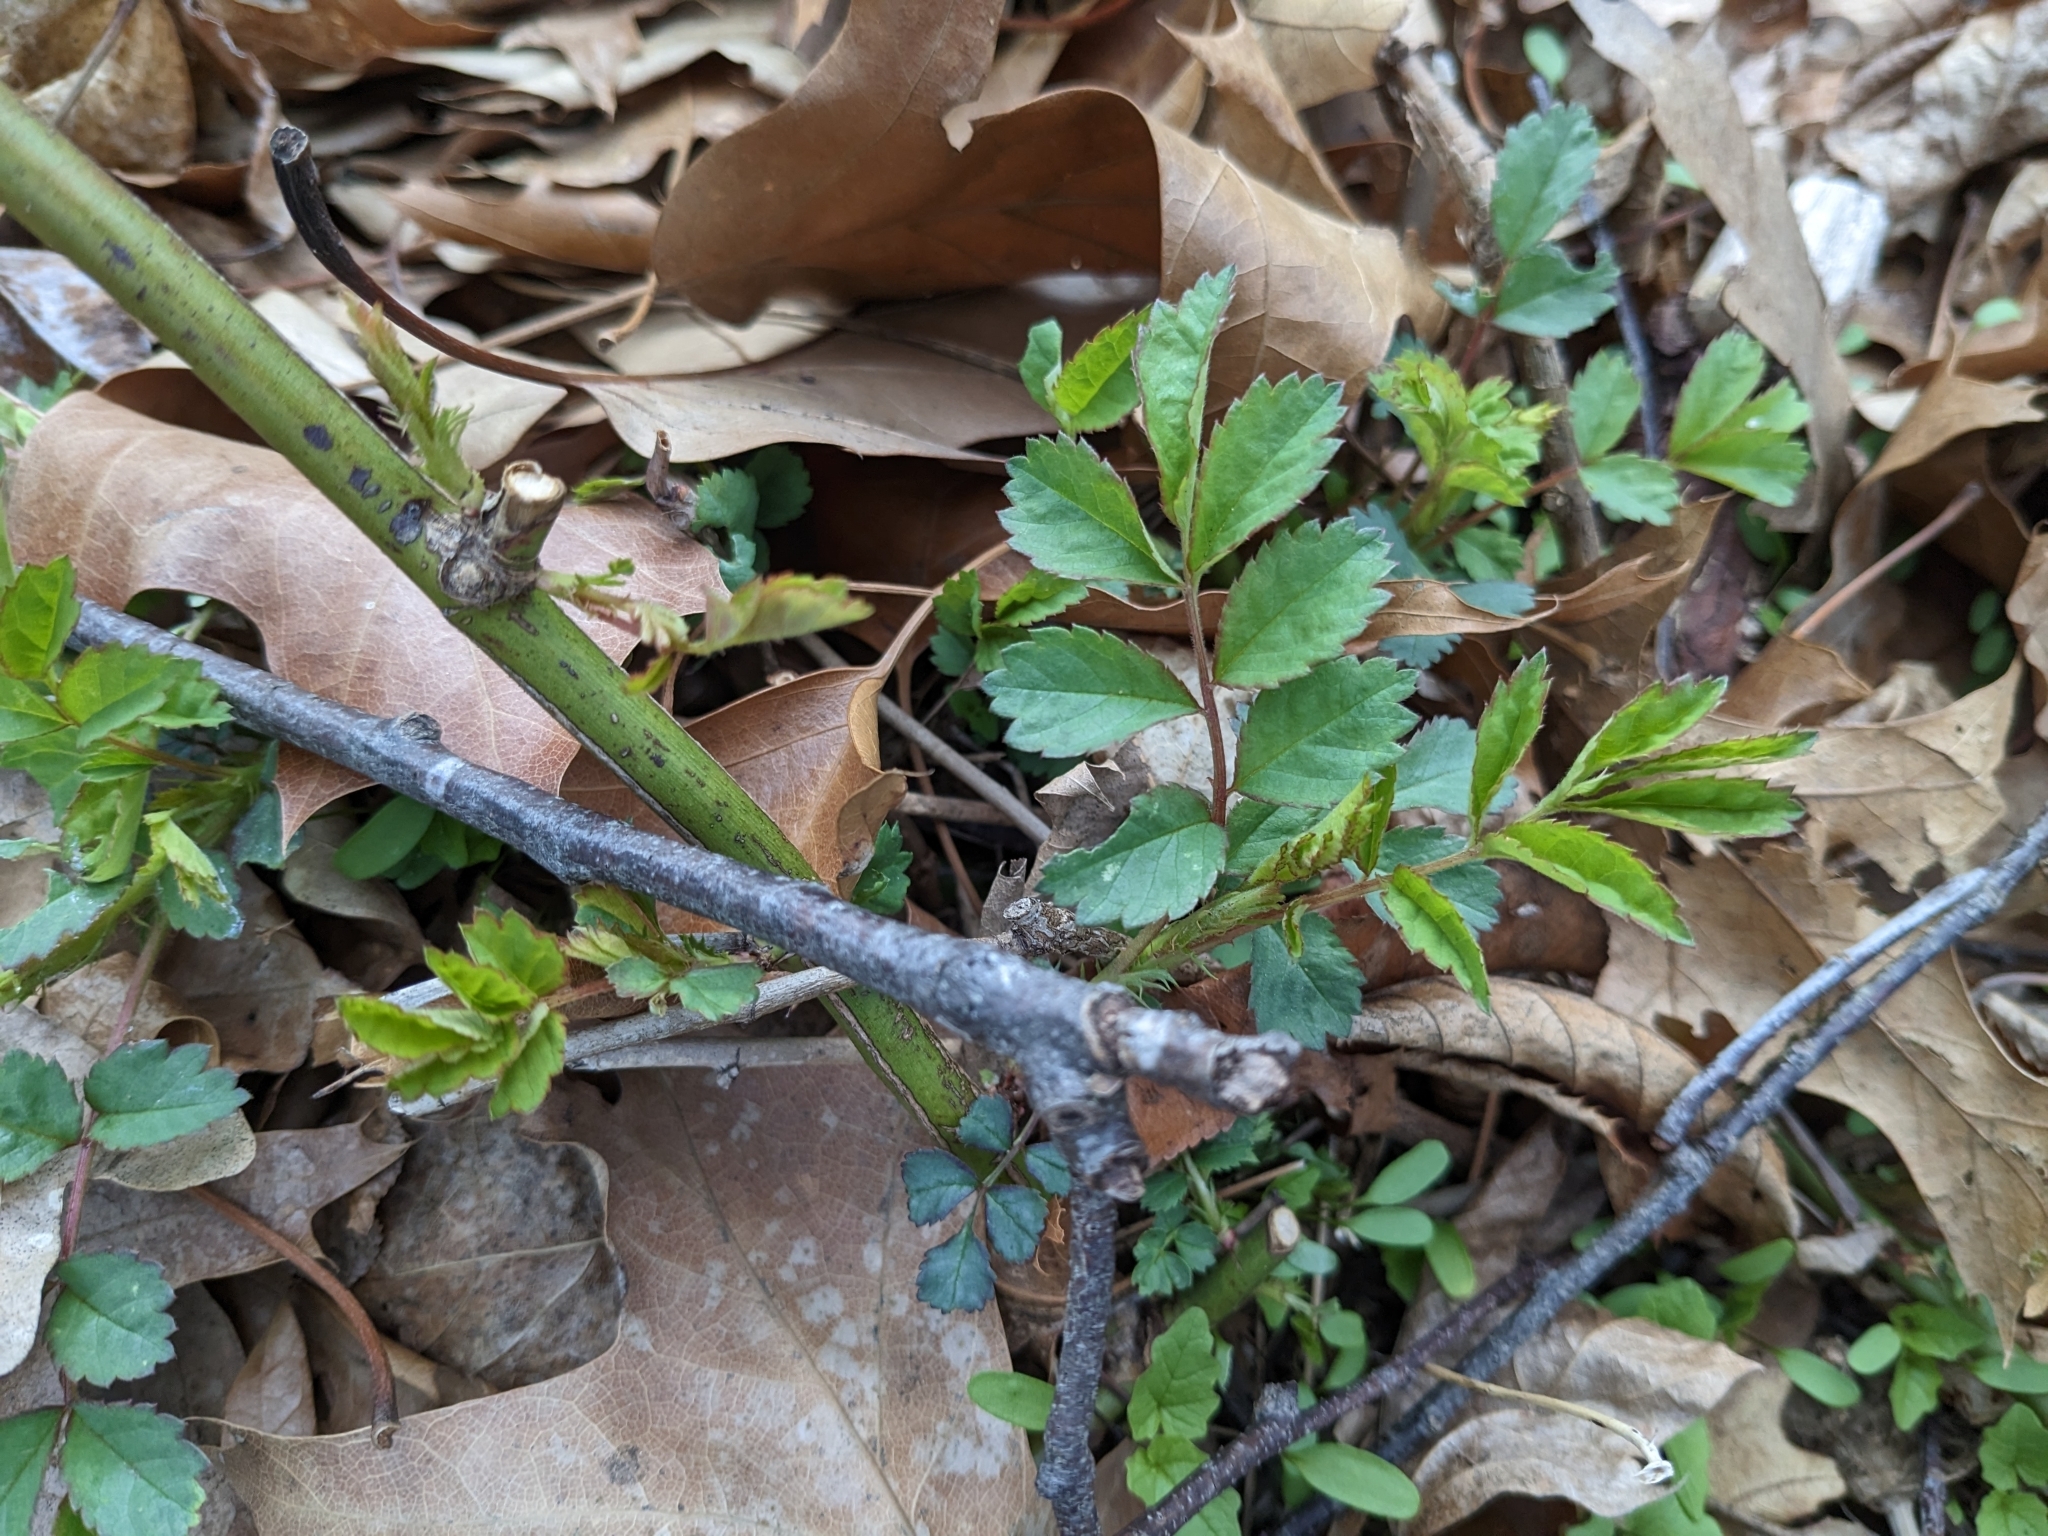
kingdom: Plantae
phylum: Tracheophyta
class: Magnoliopsida
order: Rosales
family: Rosaceae
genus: Rosa
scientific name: Rosa multiflora
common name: Multiflora rose
